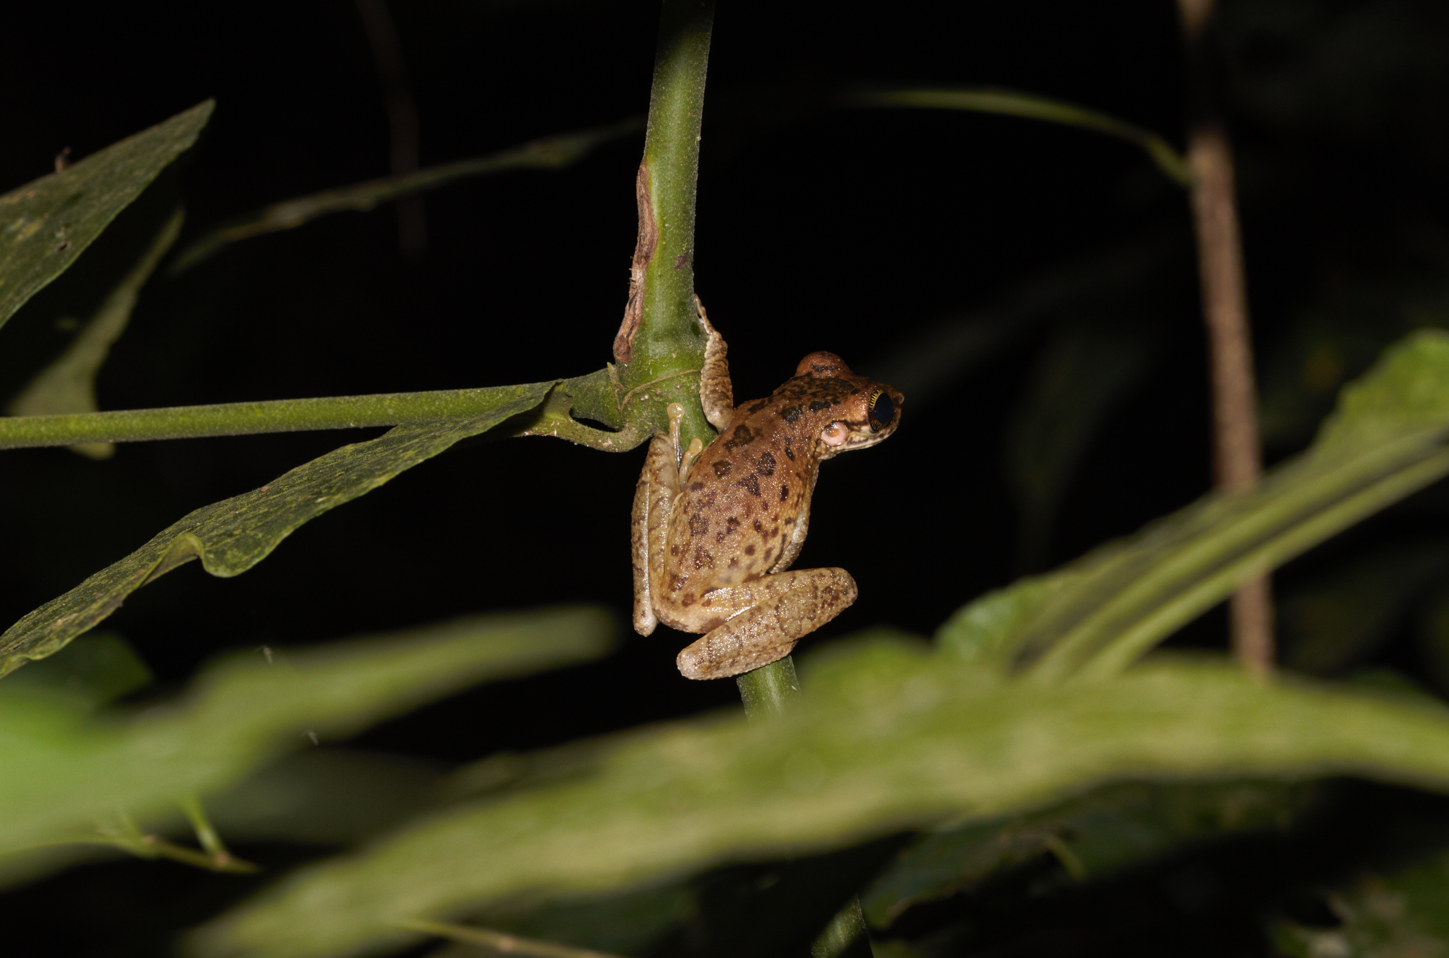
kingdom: Animalia
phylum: Chordata
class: Amphibia
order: Anura
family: Hylidae
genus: Osteocephalus
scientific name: Osteocephalus taurinus
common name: Manaus slender-legged treefrog
